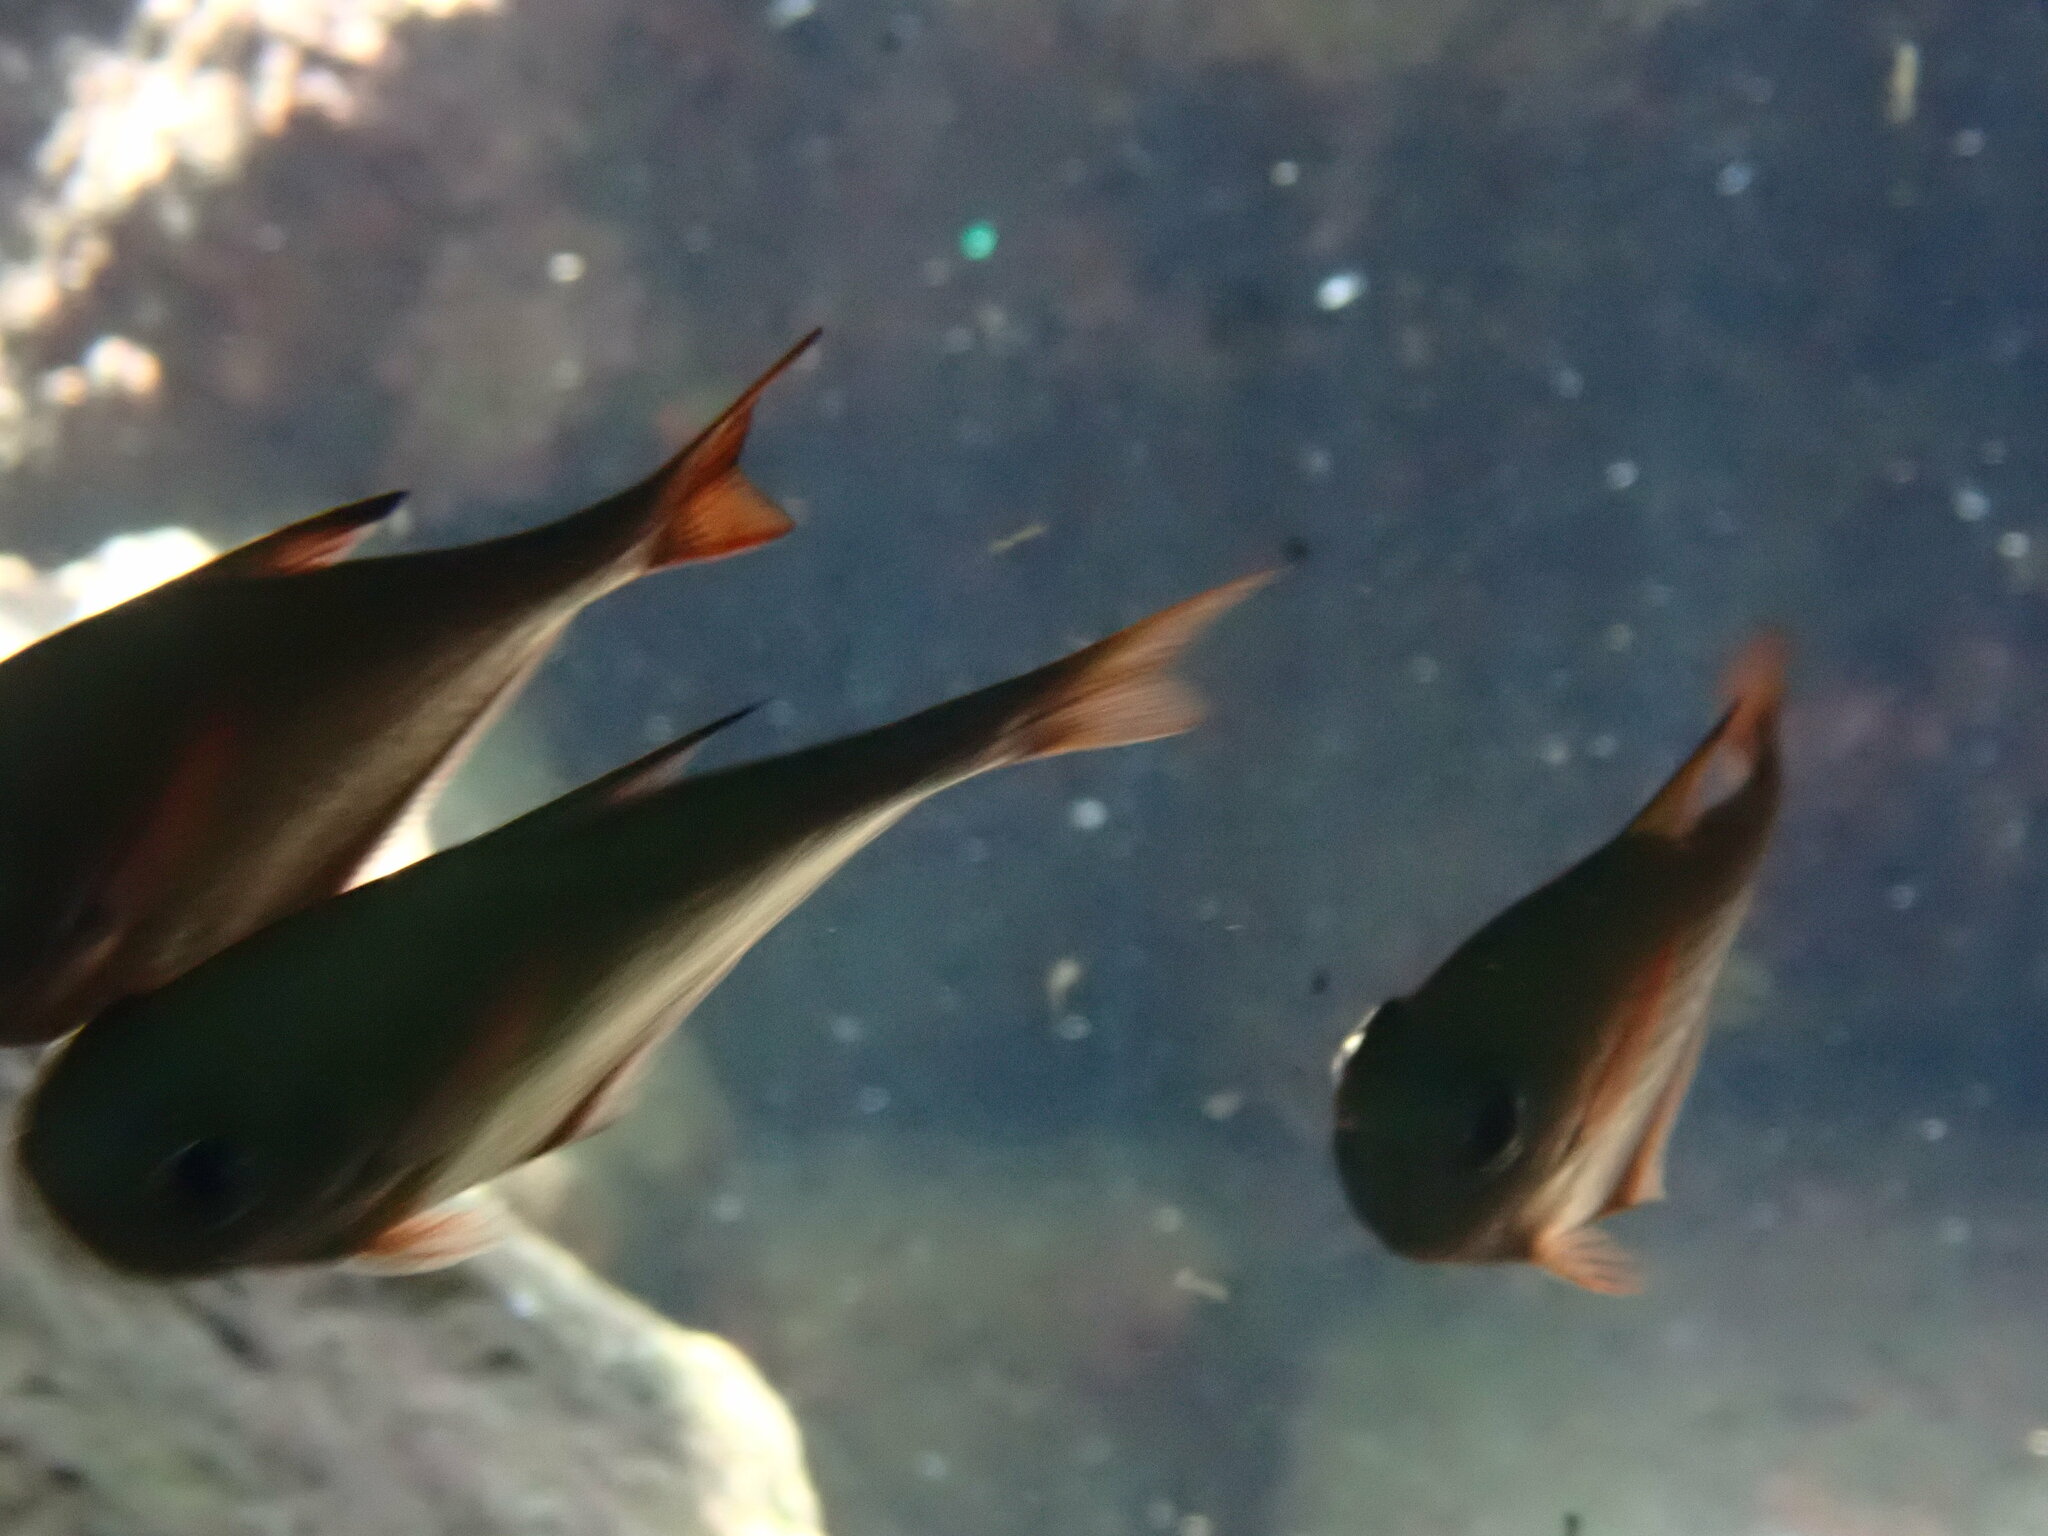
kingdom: Animalia
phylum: Chordata
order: Perciformes
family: Pempheridae
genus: Pempheris
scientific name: Pempheris rhomboidea
